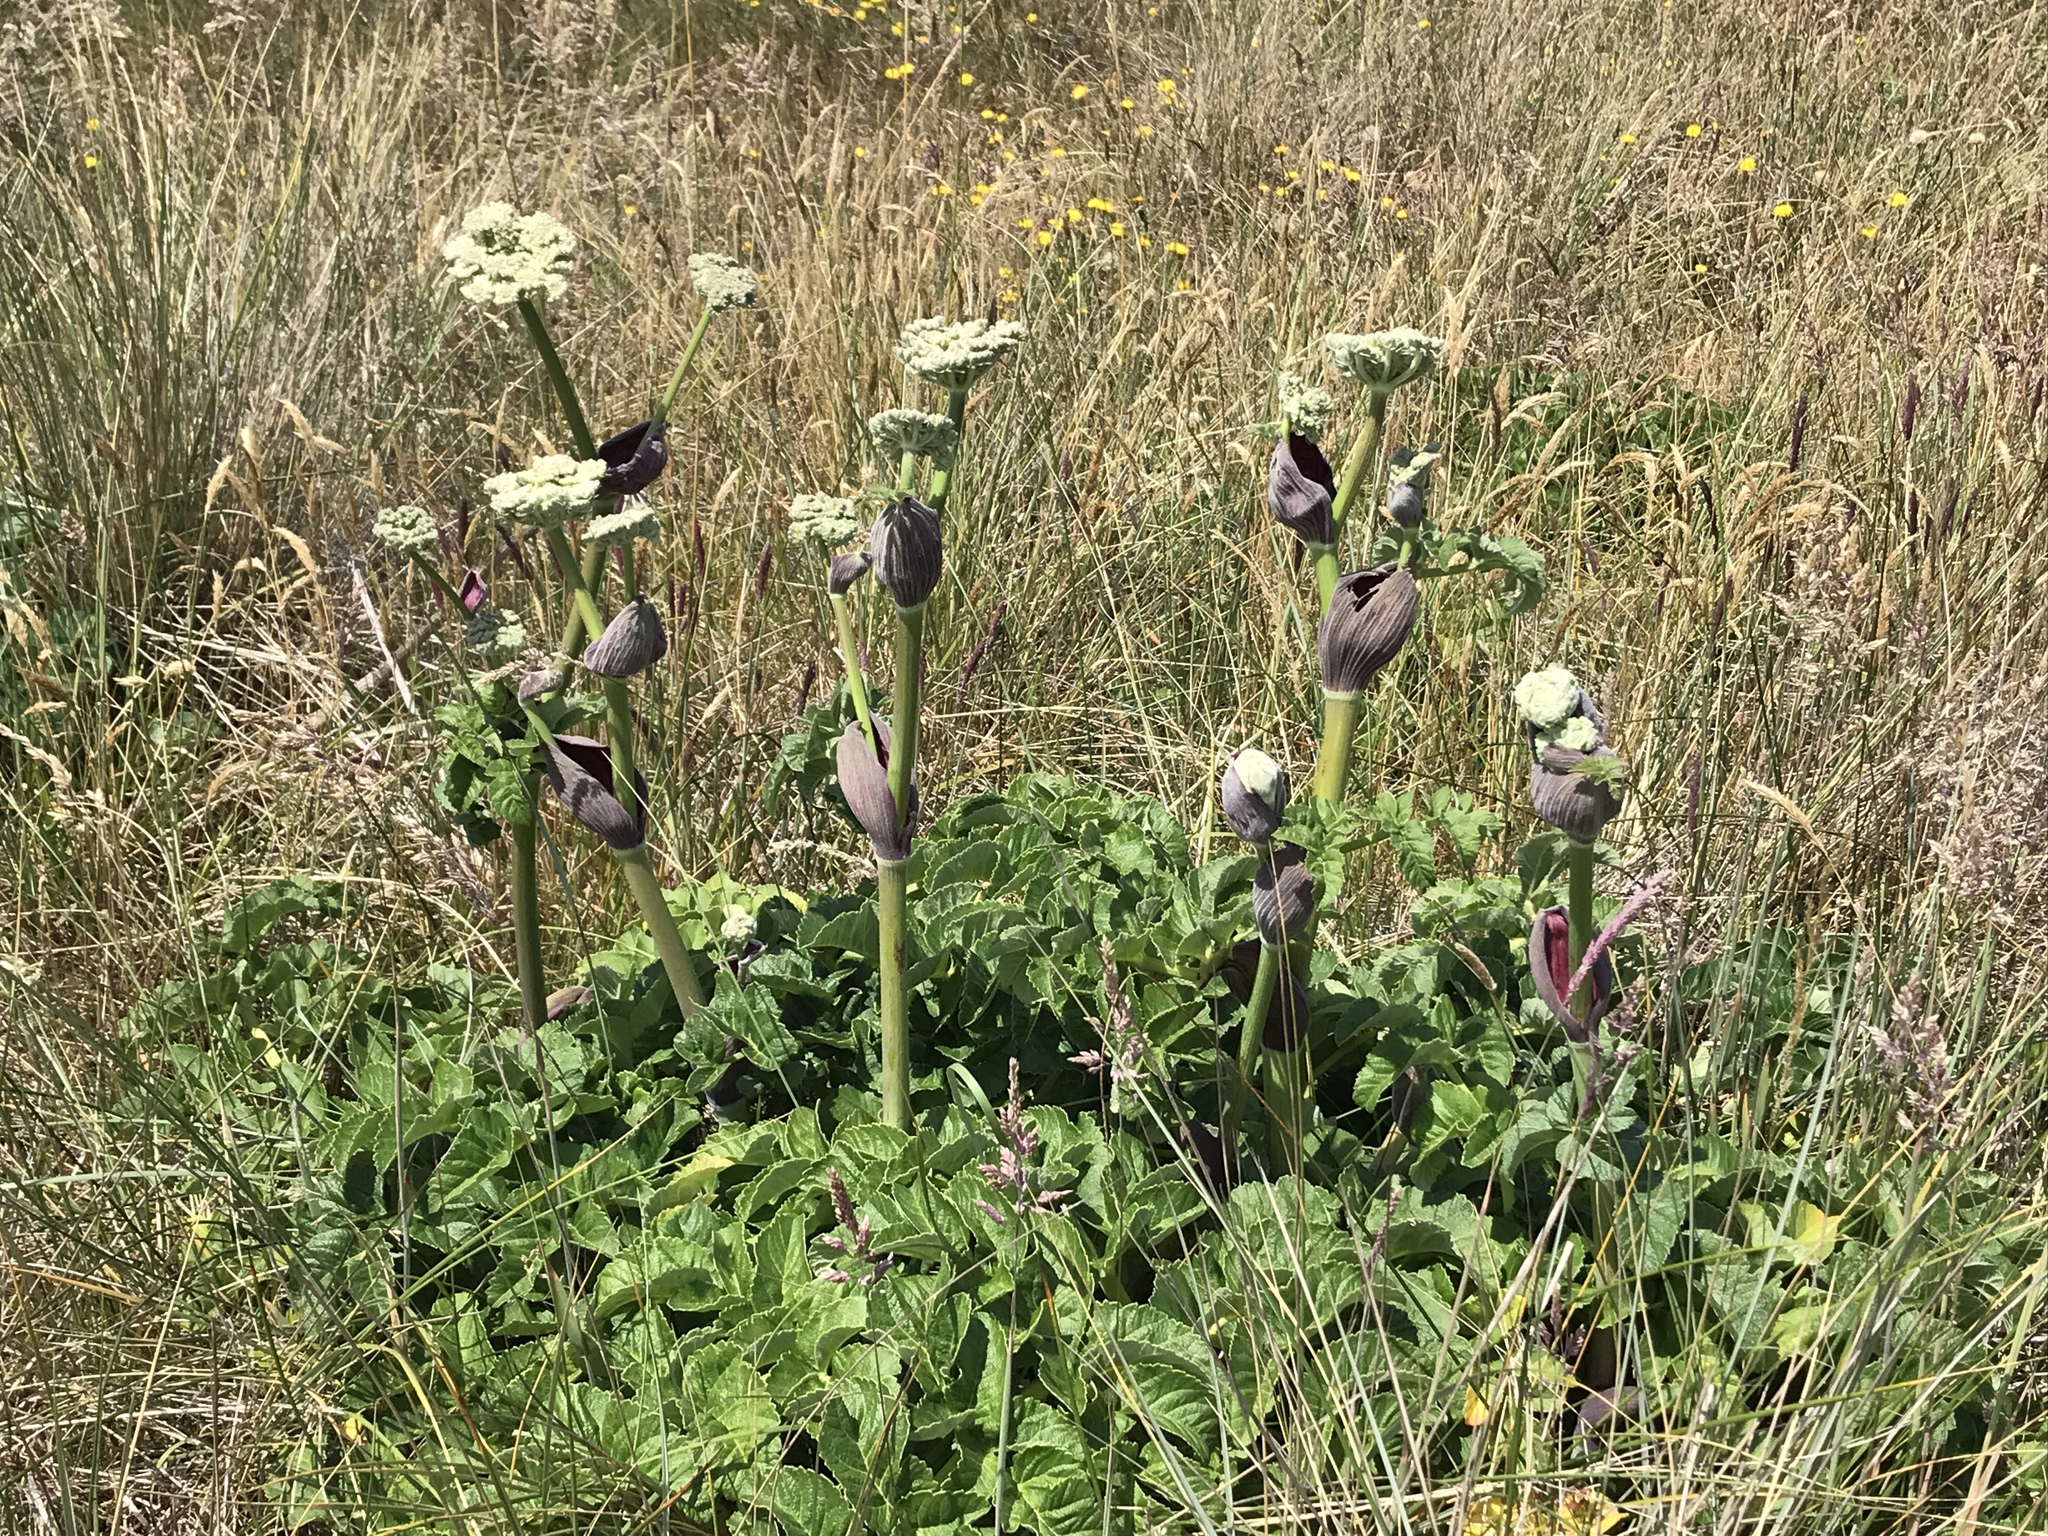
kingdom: Plantae
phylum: Tracheophyta
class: Magnoliopsida
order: Apiales
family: Apiaceae
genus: Angelica
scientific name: Angelica hendersonii
